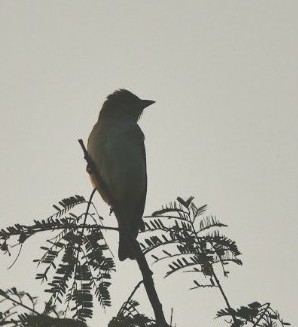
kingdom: Animalia
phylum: Chordata
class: Aves
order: Passeriformes
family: Passeridae
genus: Gymnoris
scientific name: Gymnoris xanthocollis
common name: Yellow-throated sparrow
